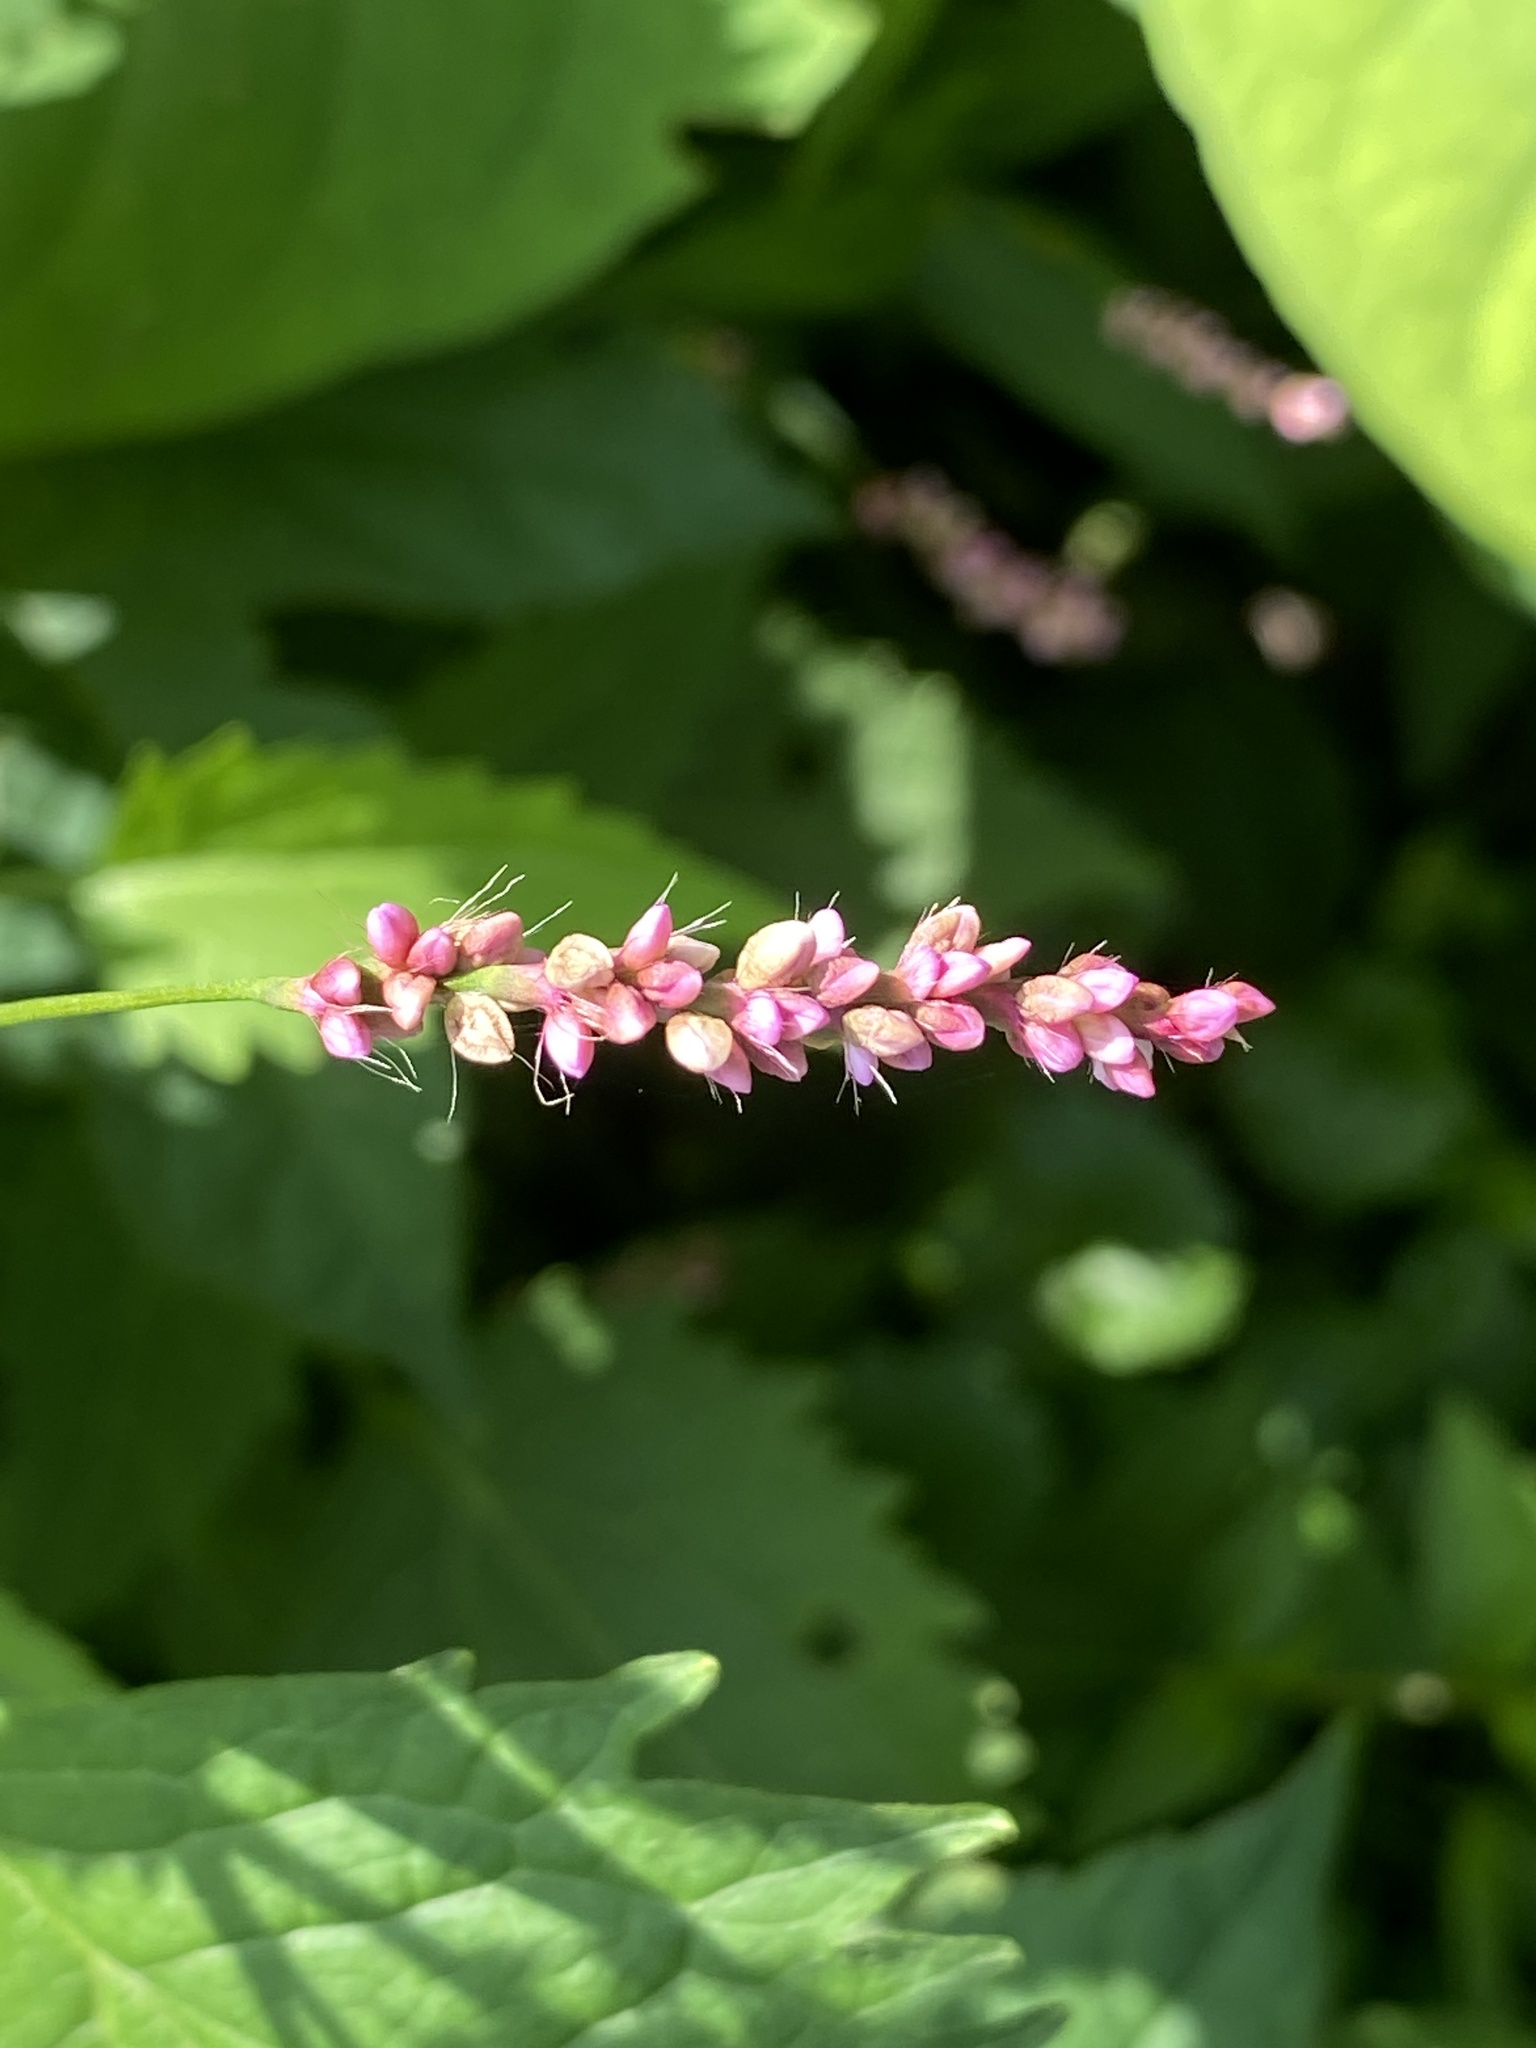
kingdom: Plantae
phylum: Tracheophyta
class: Magnoliopsida
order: Caryophyllales
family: Polygonaceae
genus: Persicaria
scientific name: Persicaria longiseta
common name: Bristly lady's-thumb
